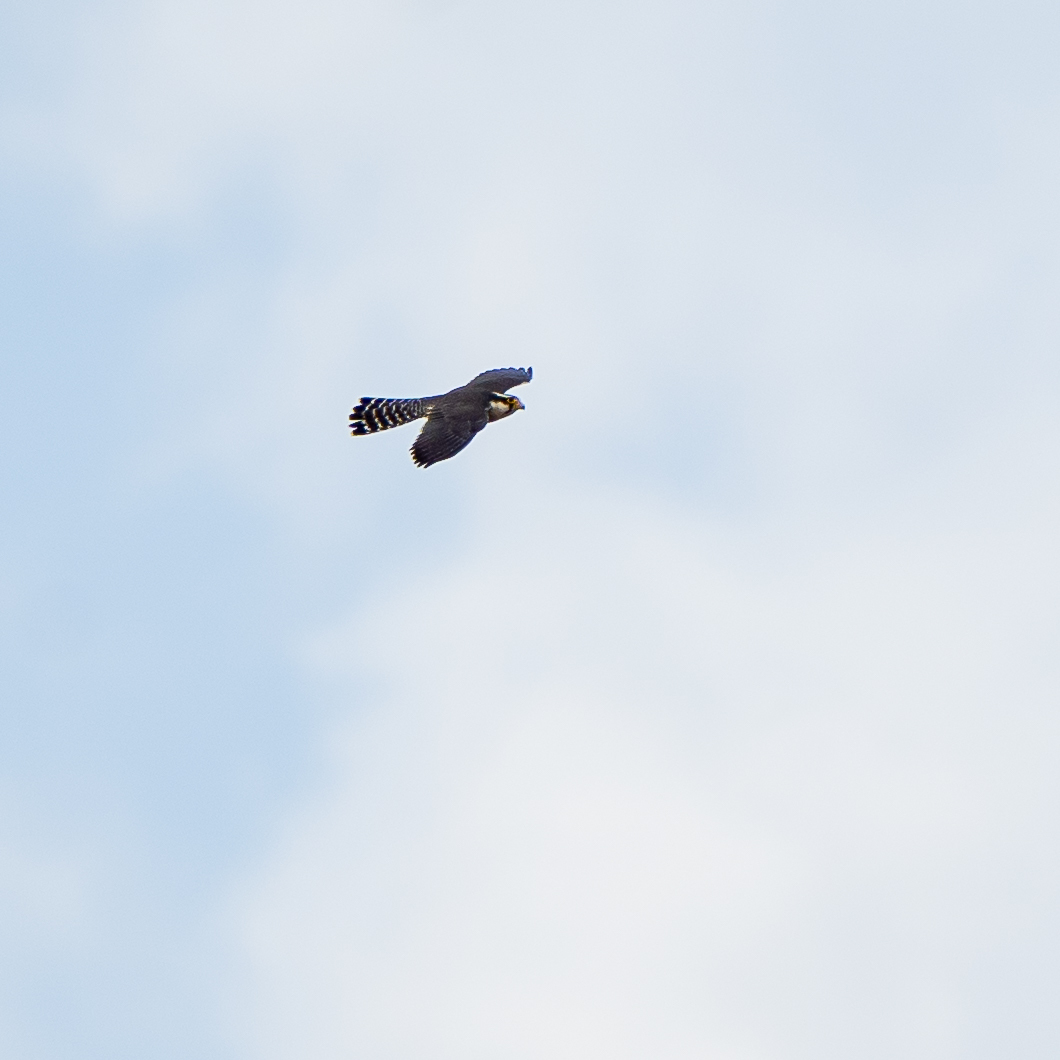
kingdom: Animalia
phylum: Chordata
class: Aves
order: Falconiformes
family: Falconidae
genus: Falco
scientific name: Falco femoralis
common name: Aplomado falcon
